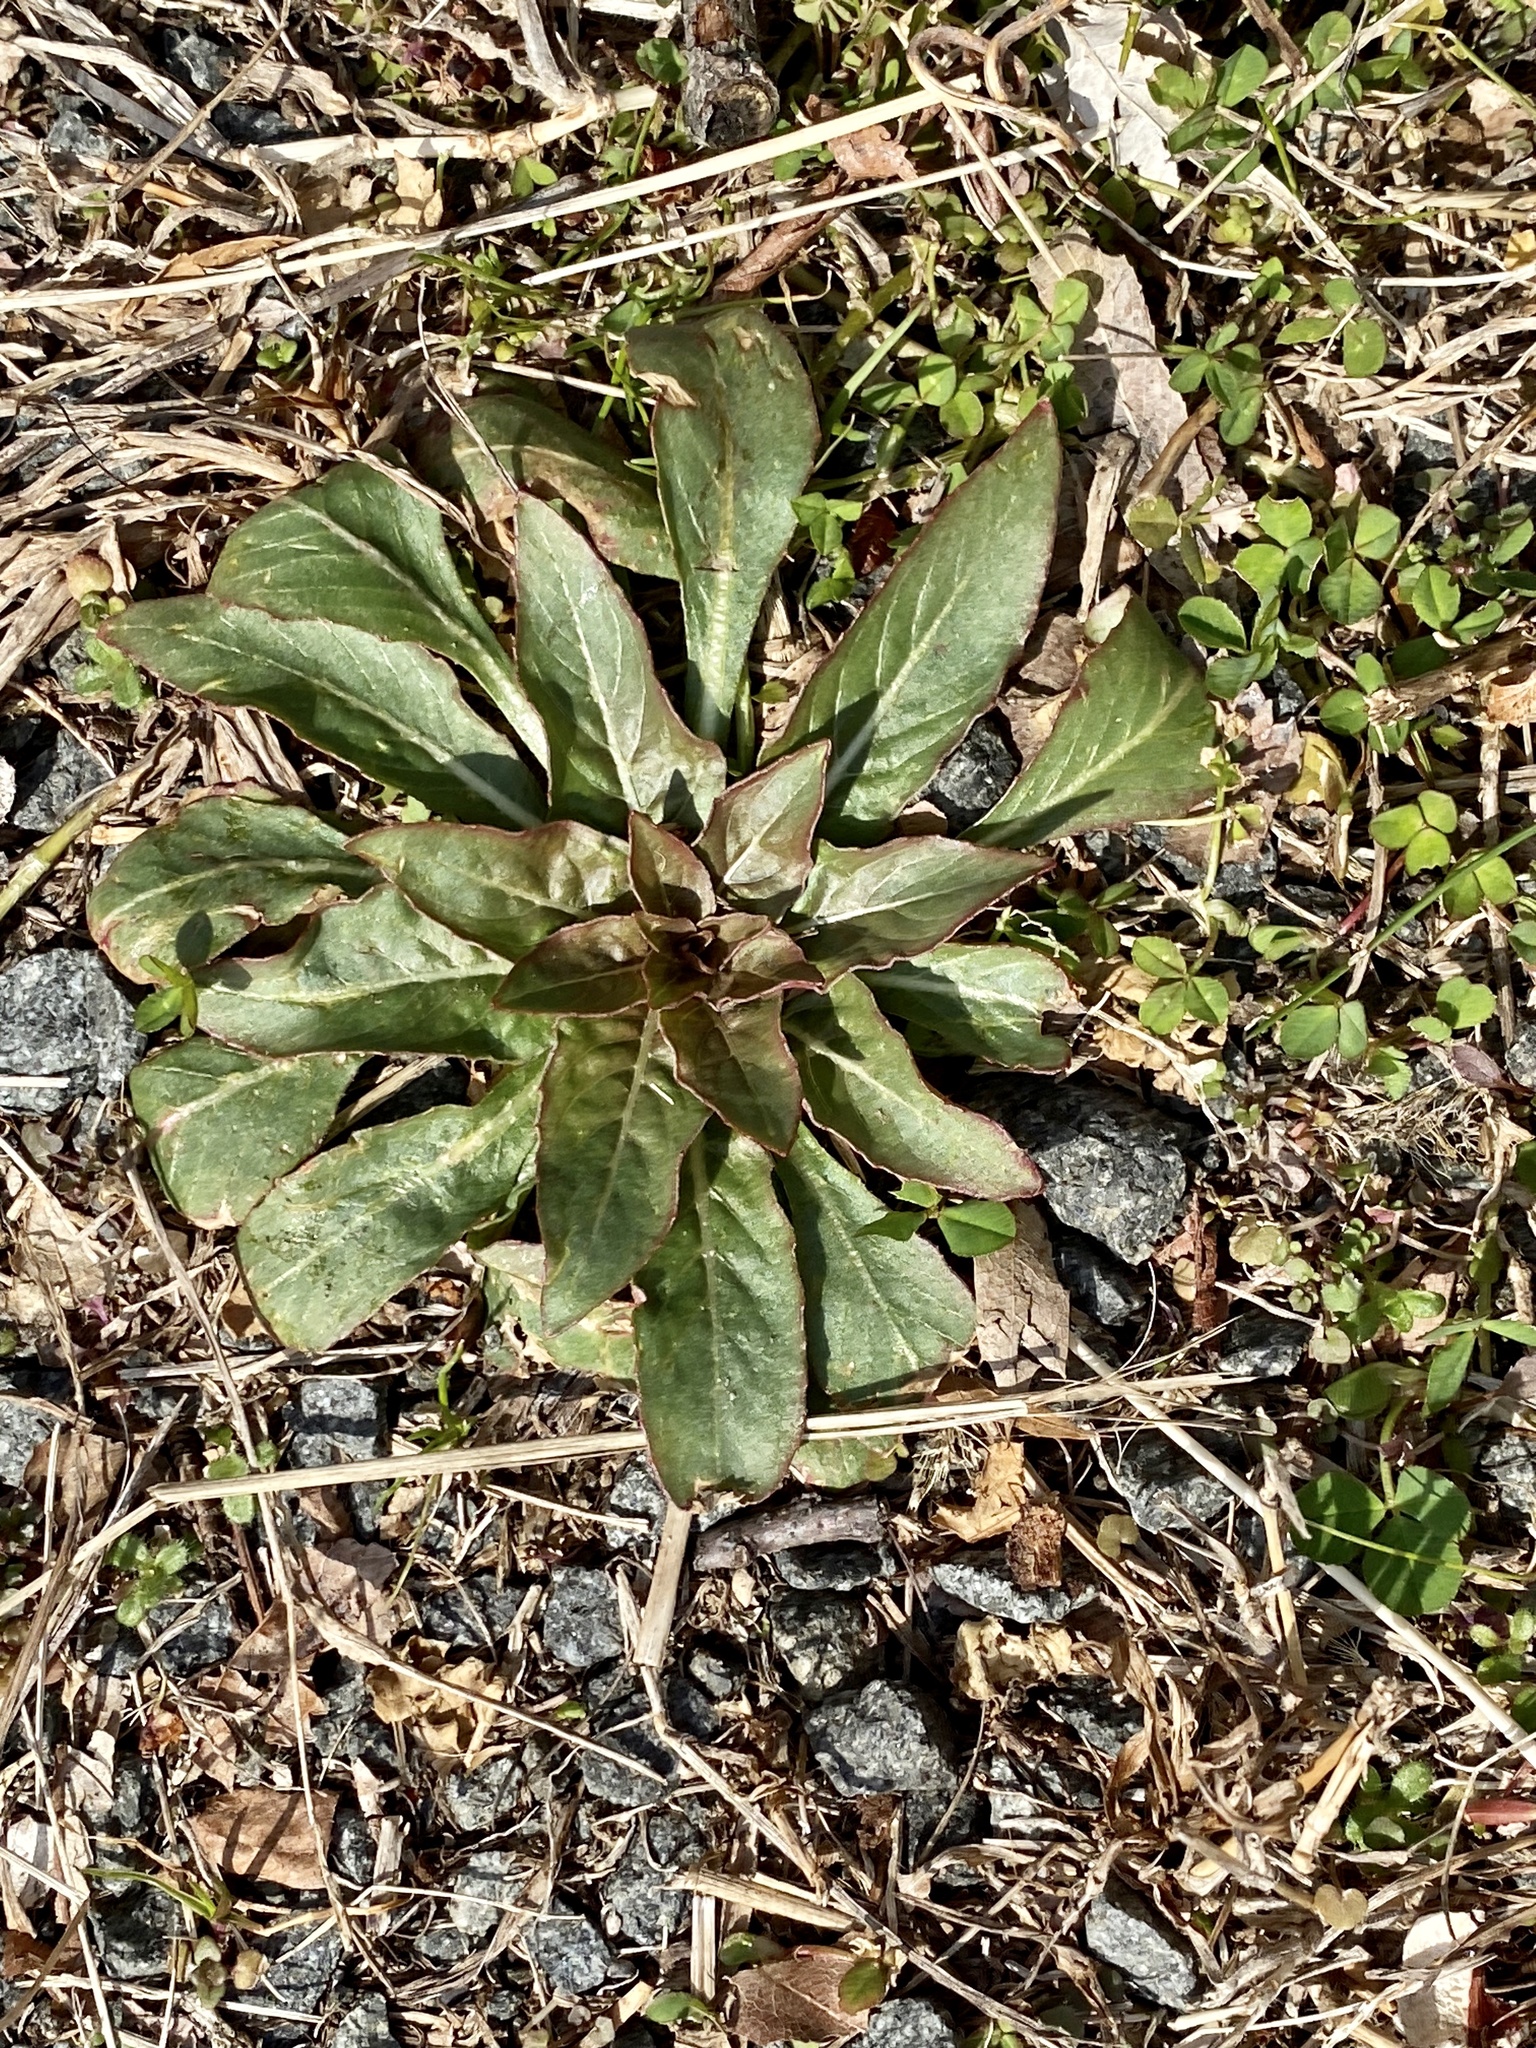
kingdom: Plantae
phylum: Tracheophyta
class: Magnoliopsida
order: Myrtales
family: Onagraceae
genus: Oenothera
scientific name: Oenothera biennis
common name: Common evening-primrose
